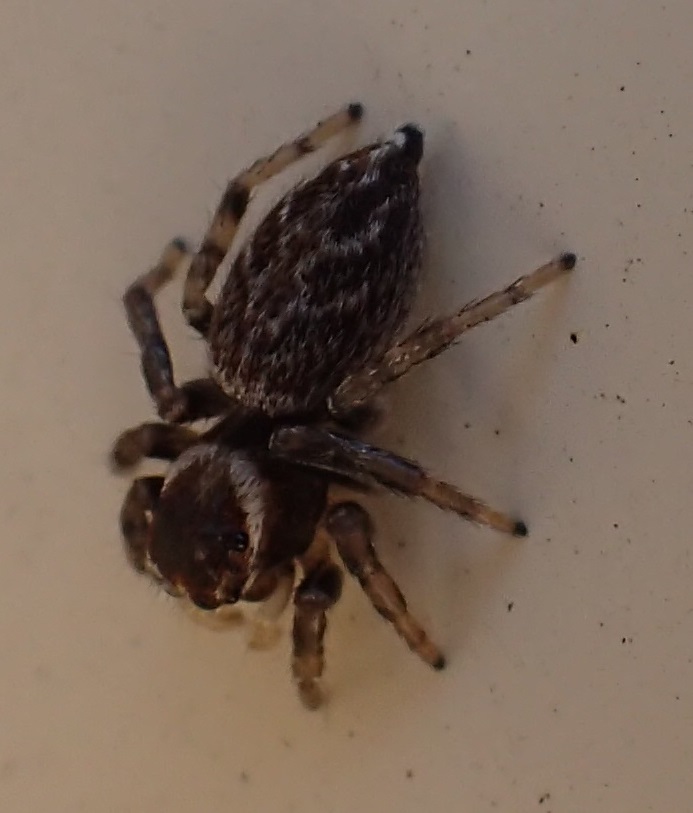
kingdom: Animalia
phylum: Arthropoda
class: Arachnida
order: Araneae
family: Salticidae
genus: Maratus
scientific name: Maratus griseus
